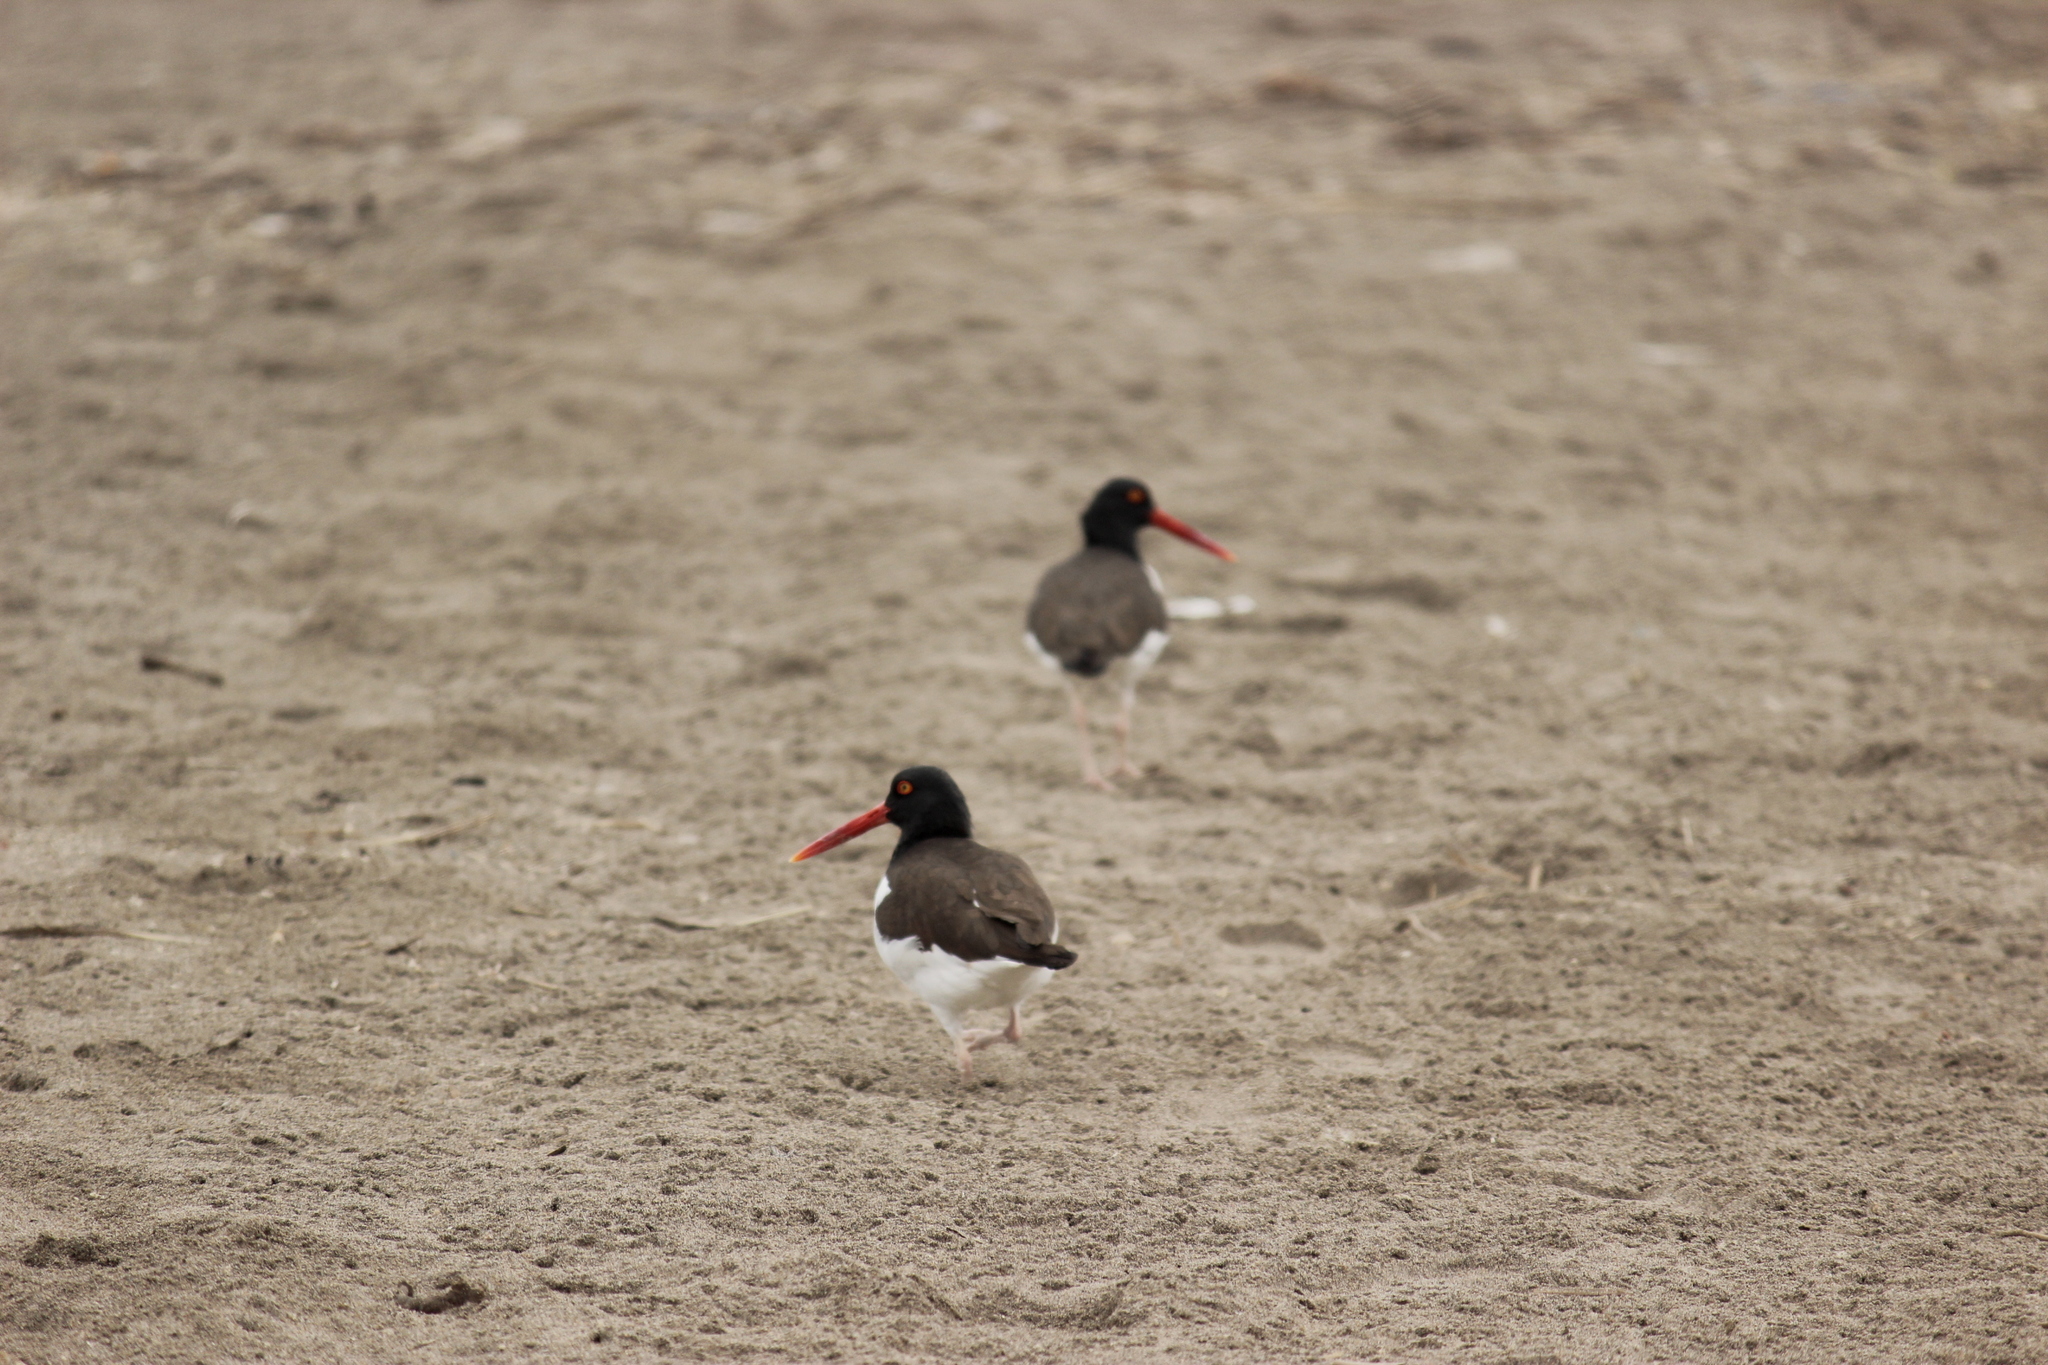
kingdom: Animalia
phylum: Chordata
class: Aves
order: Charadriiformes
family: Haematopodidae
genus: Haematopus
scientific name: Haematopus palliatus
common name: American oystercatcher
